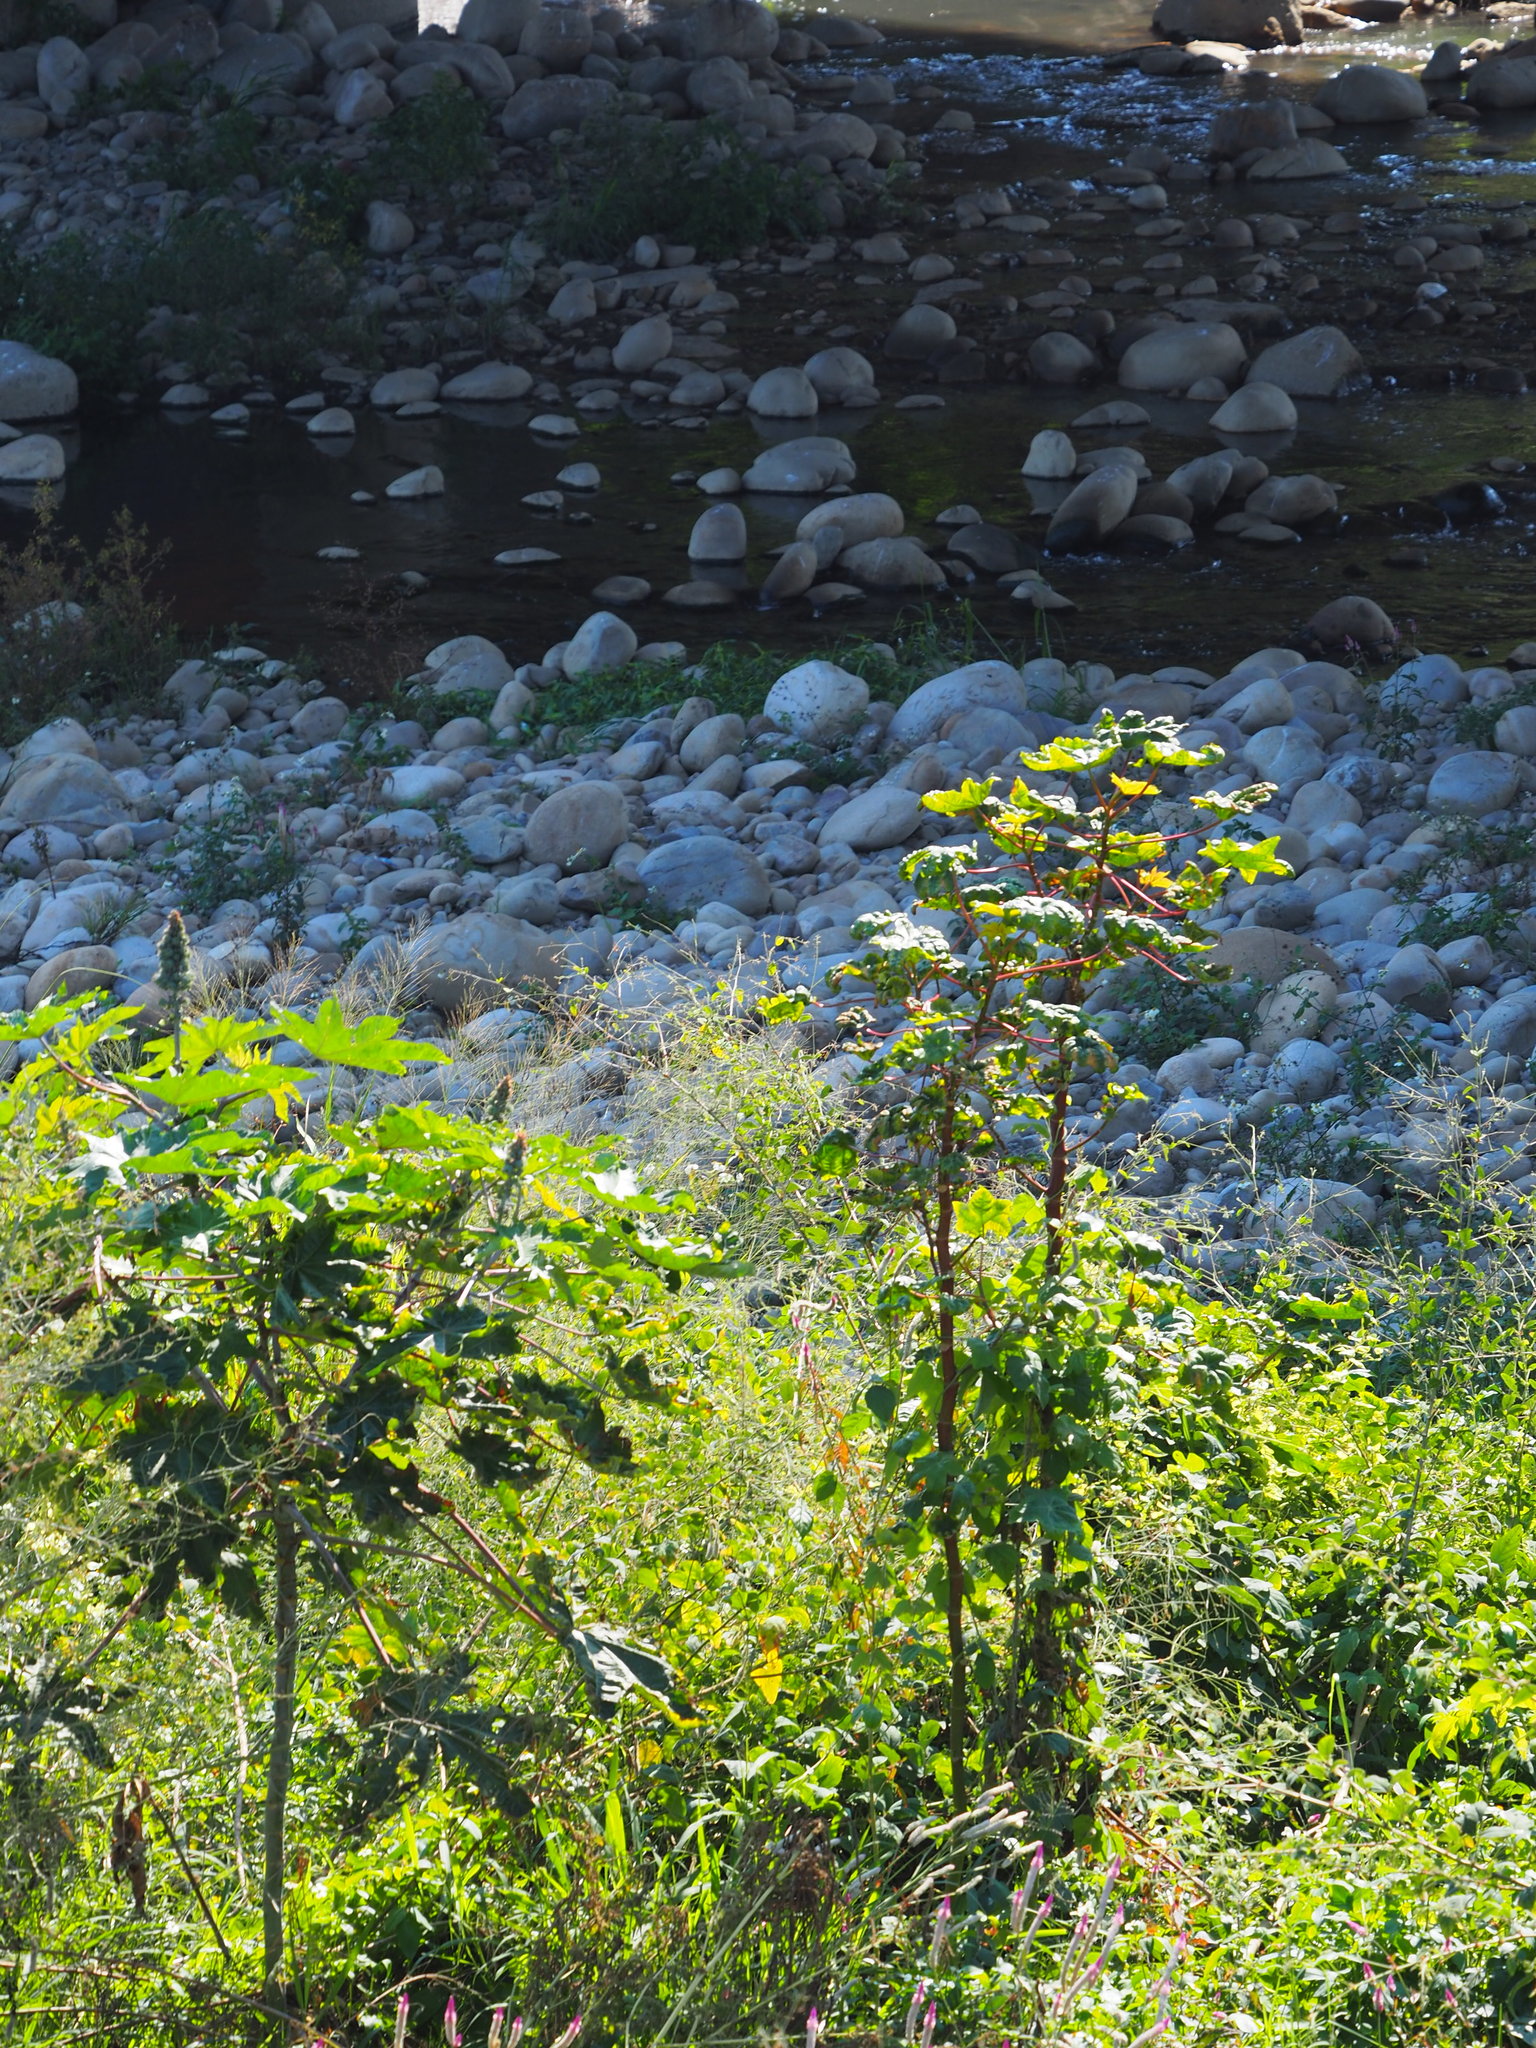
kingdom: Plantae
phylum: Tracheophyta
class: Magnoliopsida
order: Malpighiales
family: Euphorbiaceae
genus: Ricinus
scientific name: Ricinus communis
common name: Castor-oil-plant
